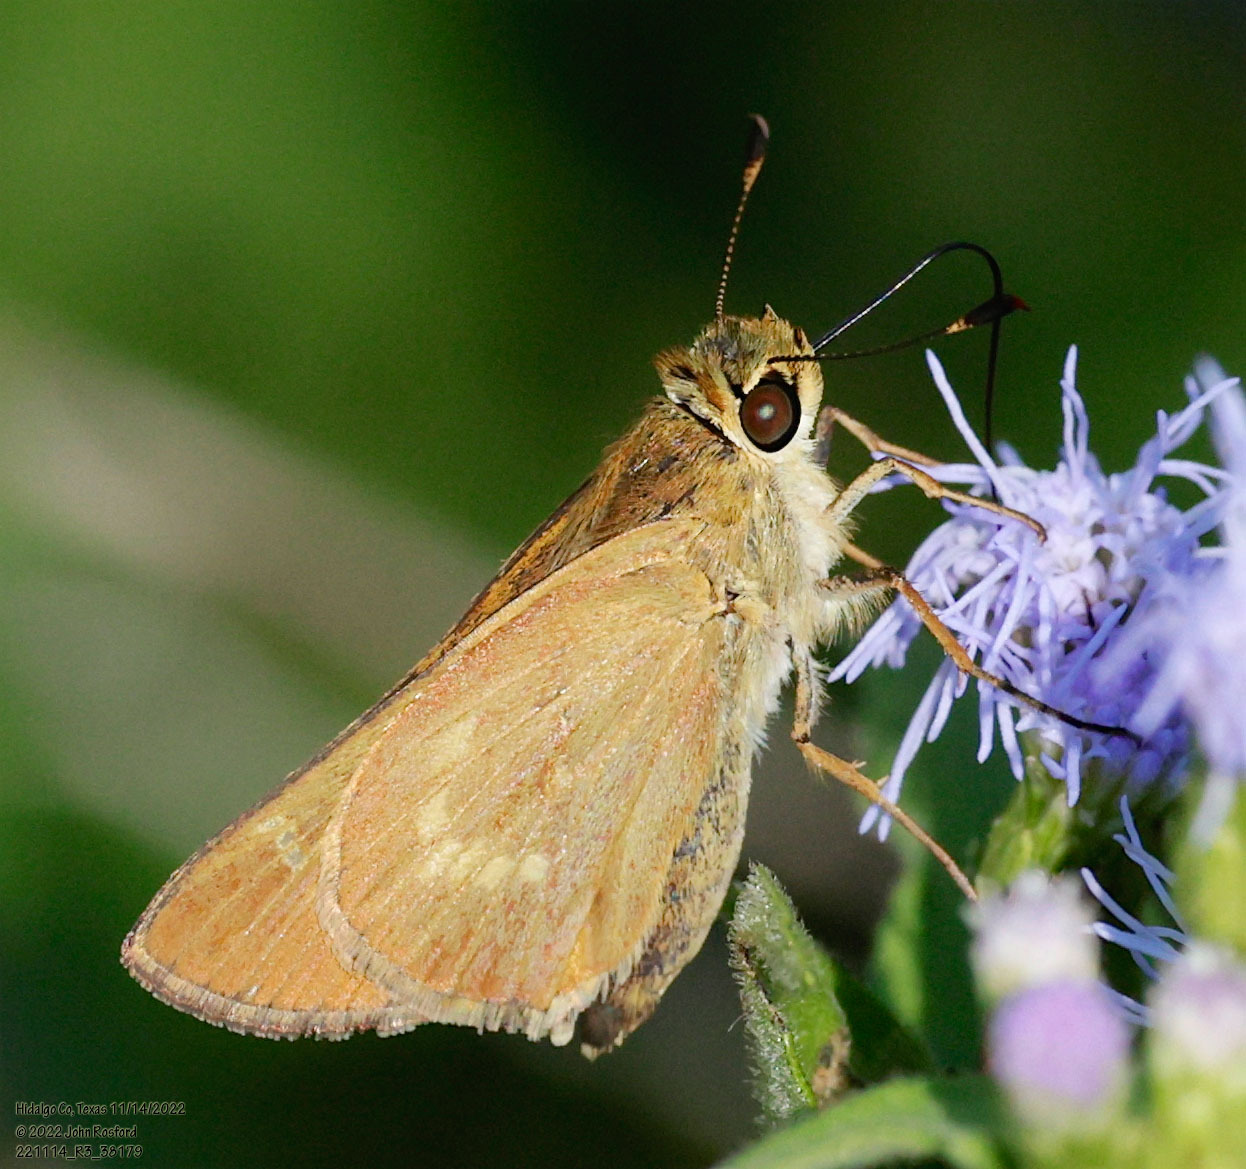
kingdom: Animalia
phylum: Arthropoda
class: Insecta
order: Lepidoptera
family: Hesperiidae
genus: Mellana
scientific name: Mellana eulogius
